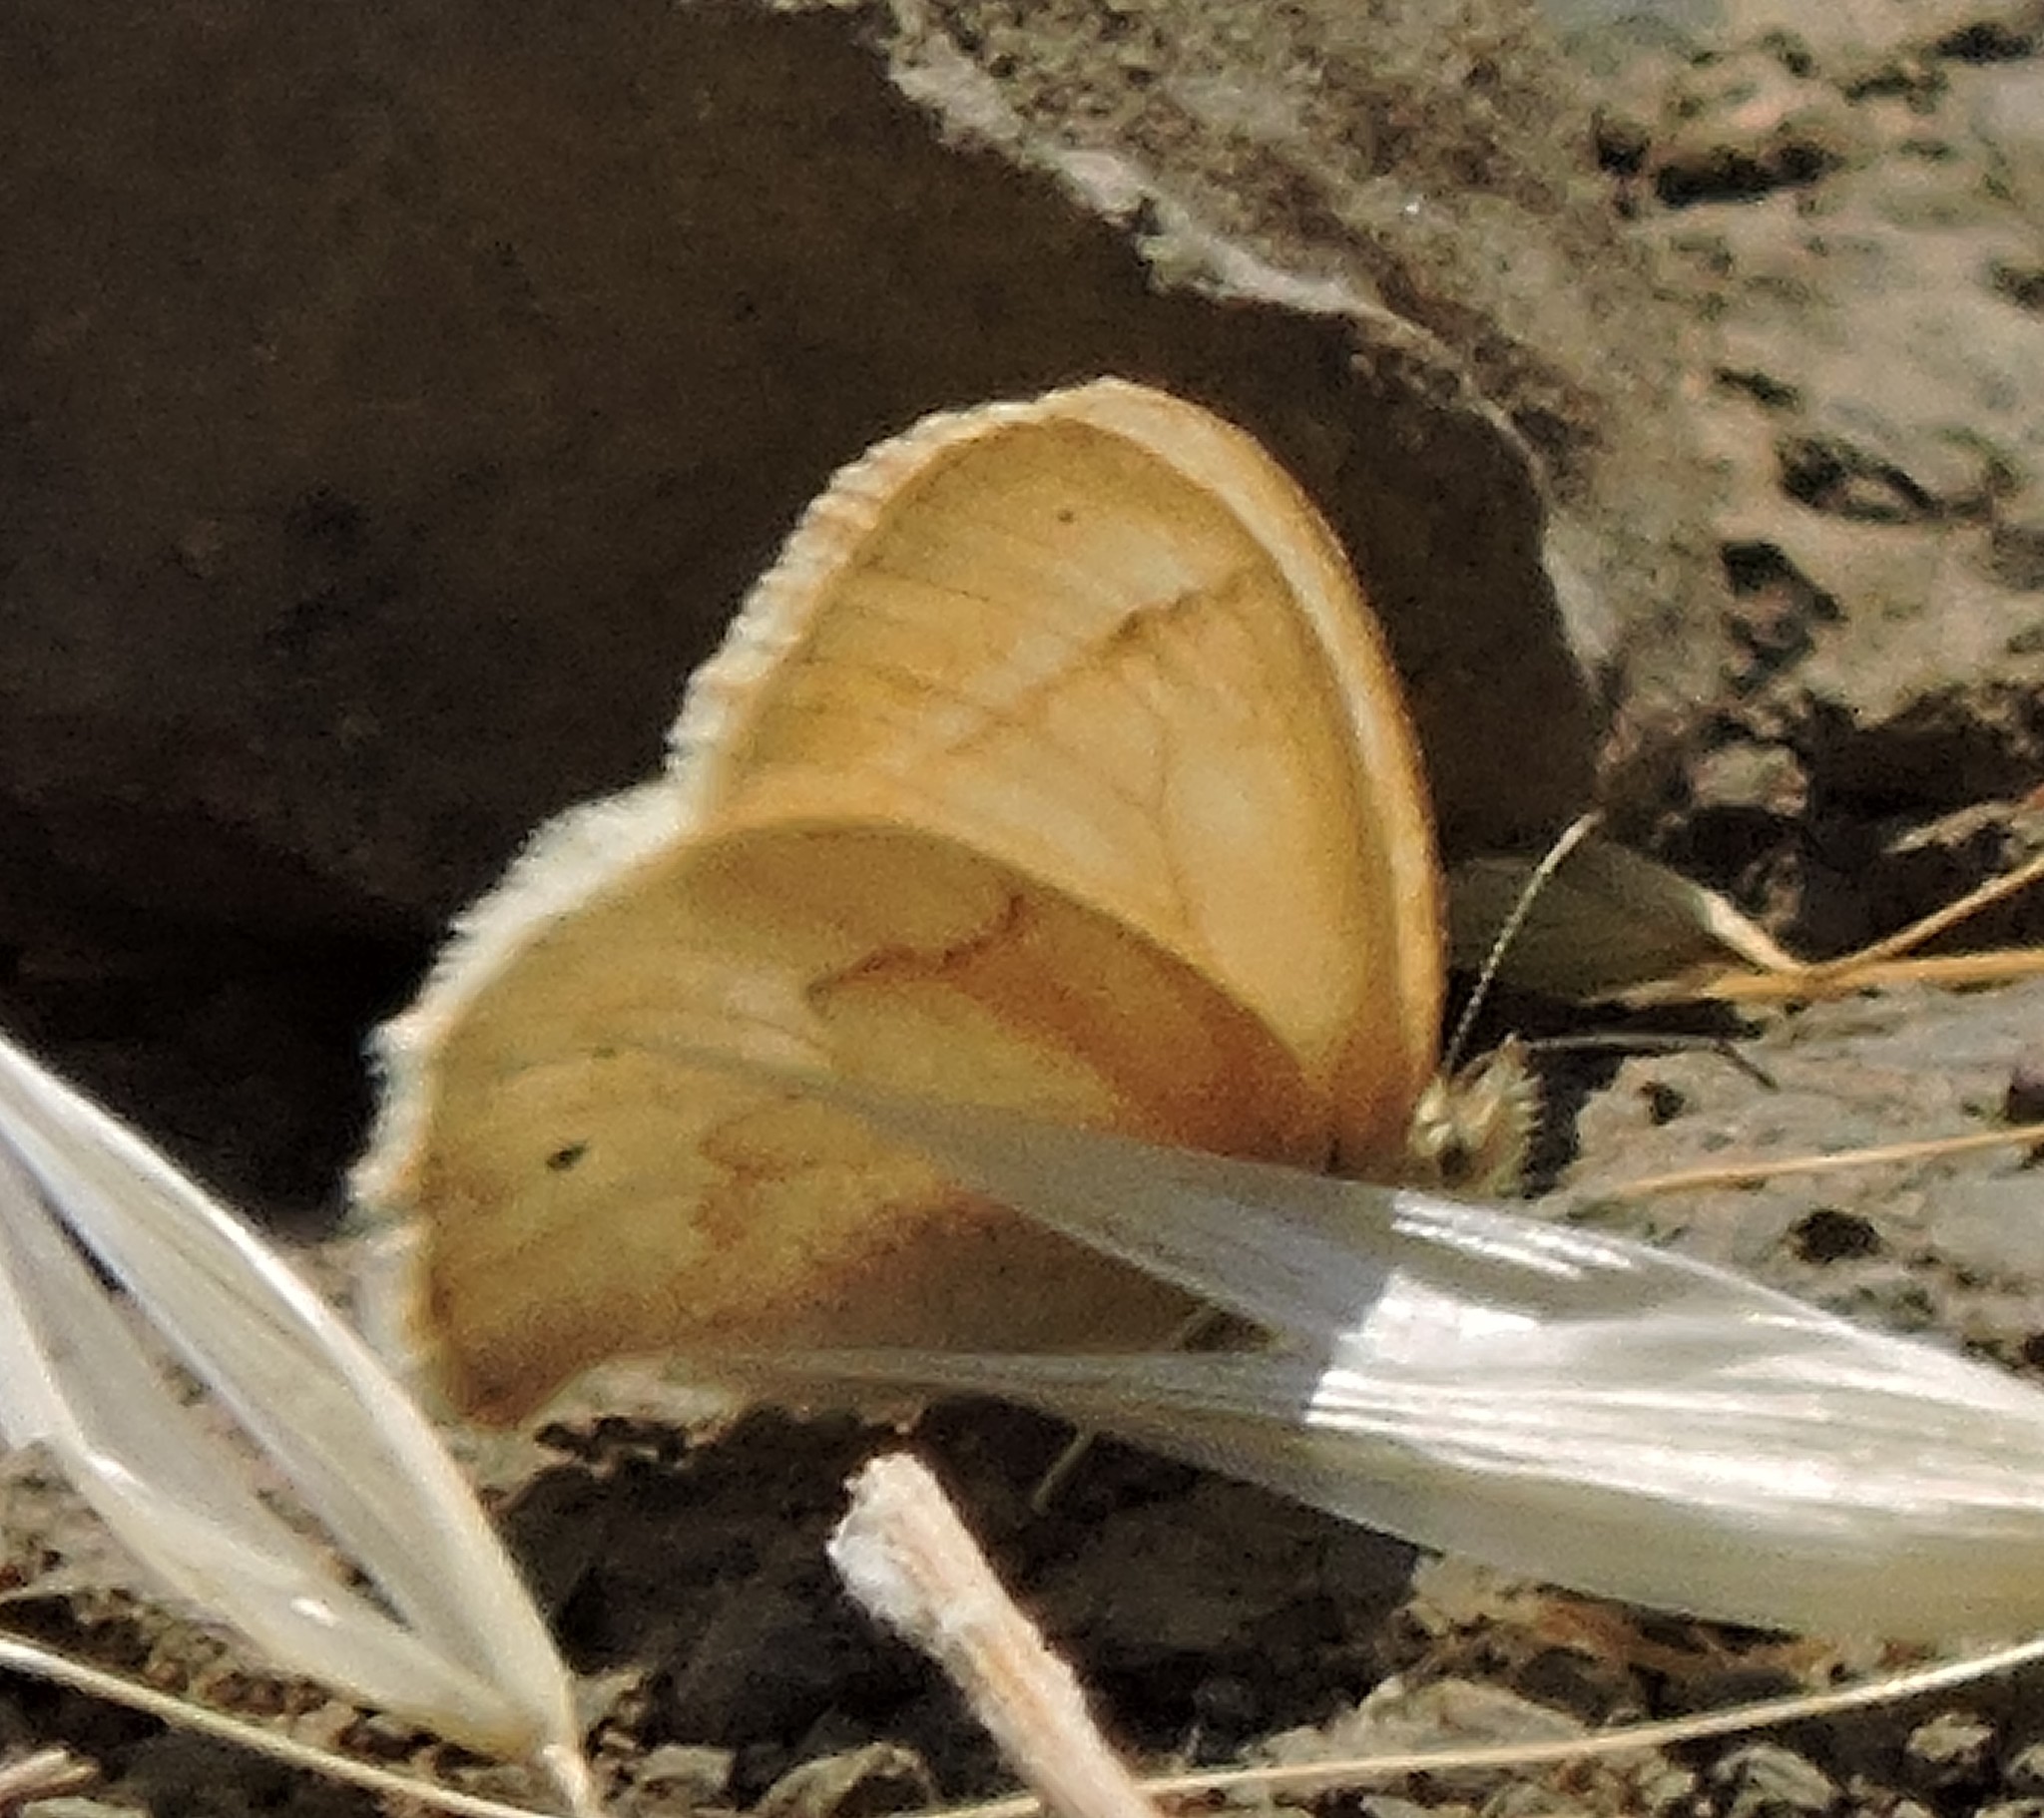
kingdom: Animalia
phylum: Arthropoda
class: Insecta
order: Lepidoptera
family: Nymphalidae
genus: Coenonympha
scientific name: Coenonympha california
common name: Common ringlet
